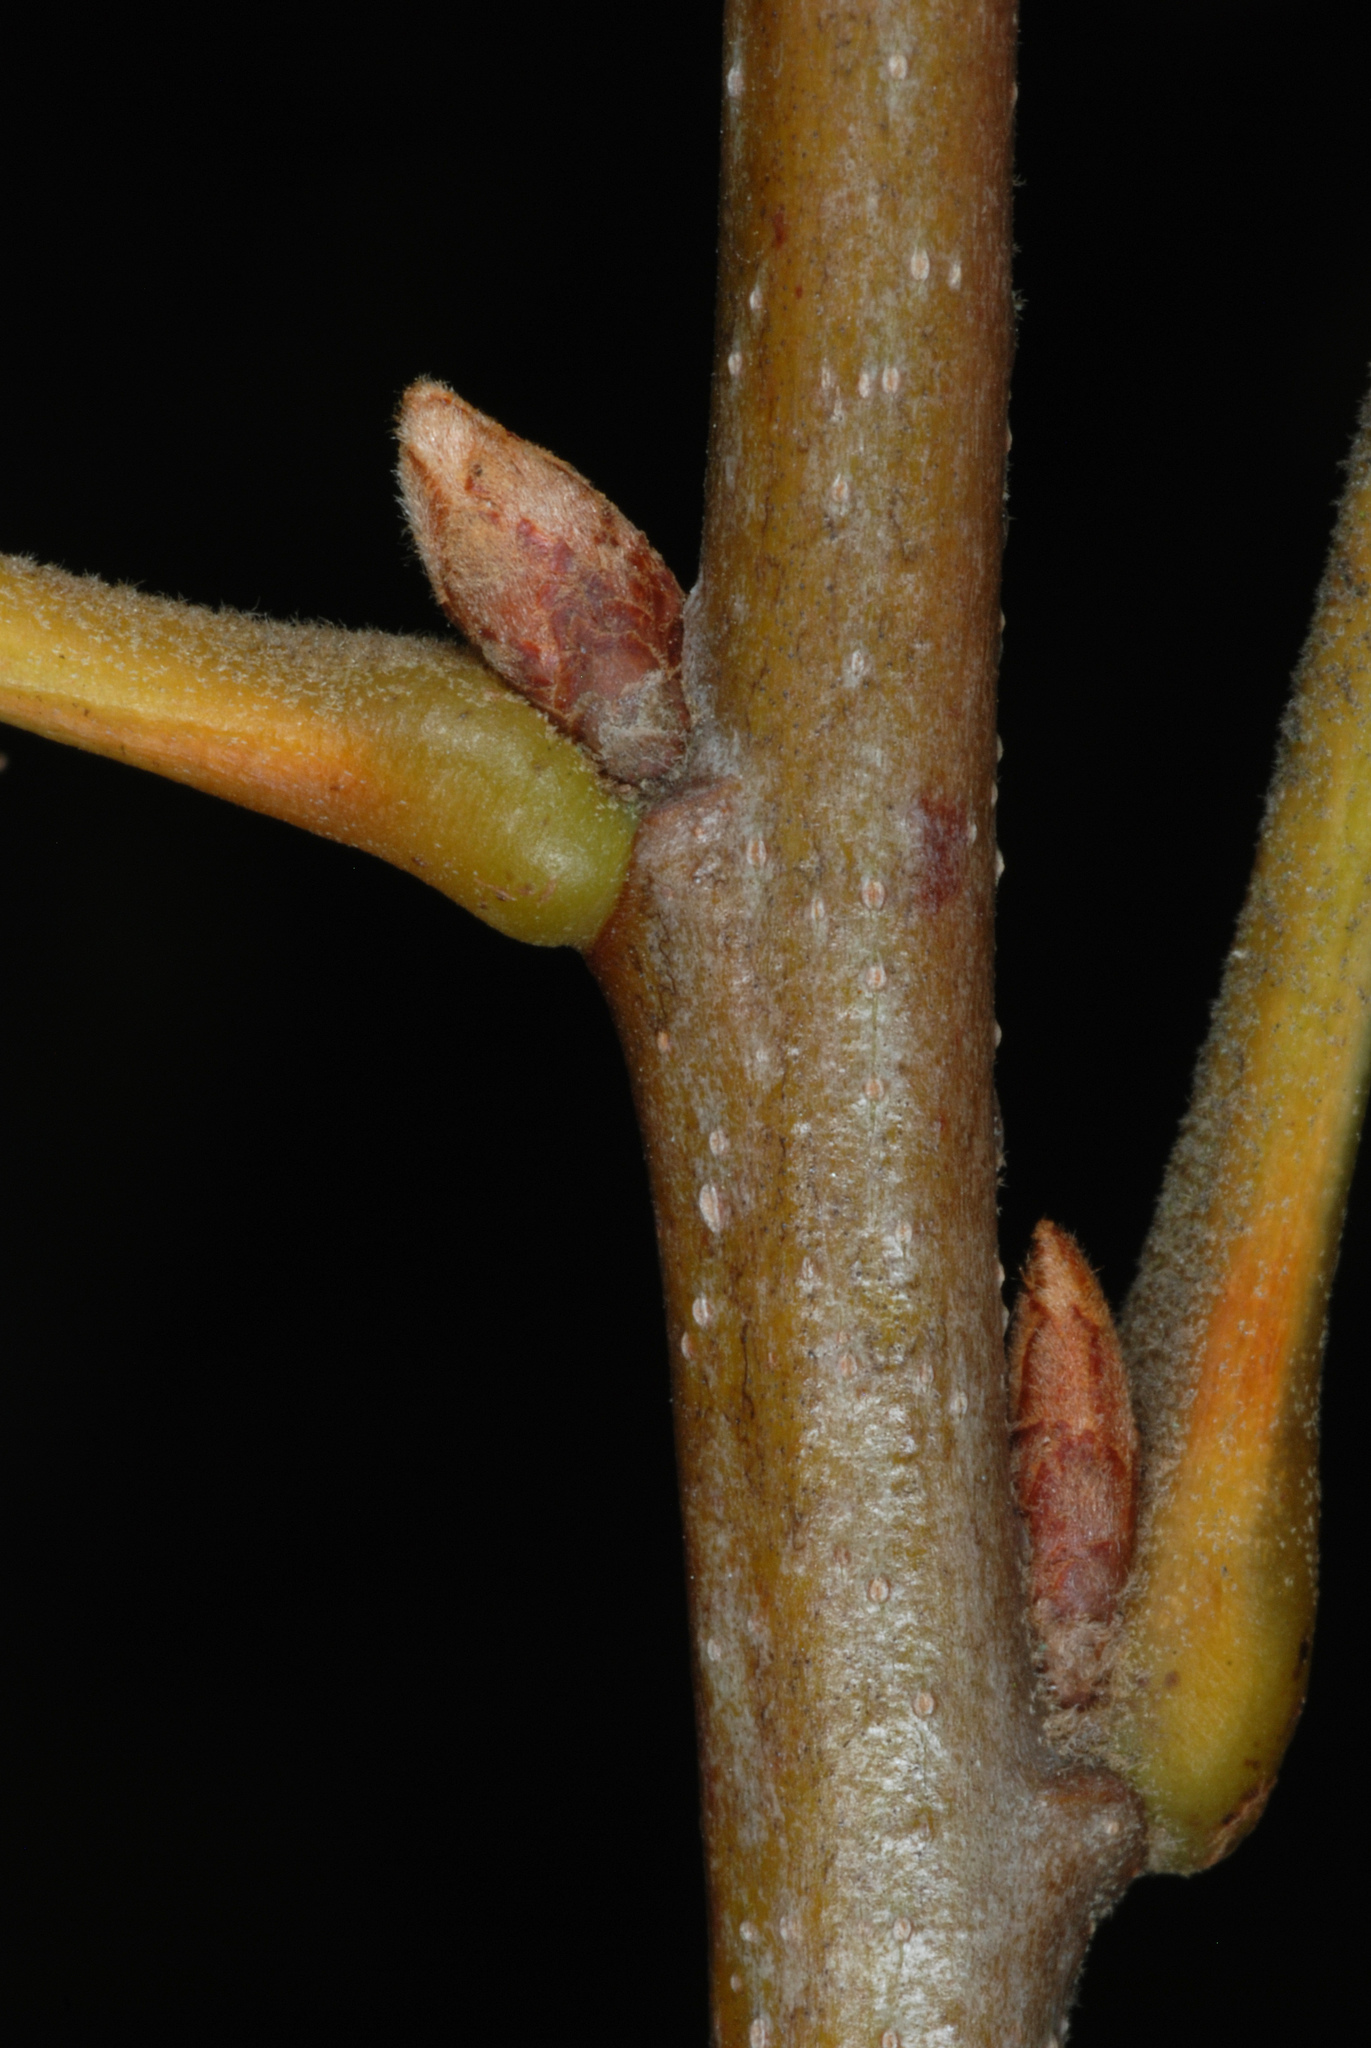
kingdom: Plantae
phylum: Tracheophyta
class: Magnoliopsida
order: Fagales
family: Fagaceae
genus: Quercus
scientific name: Quercus bushii
